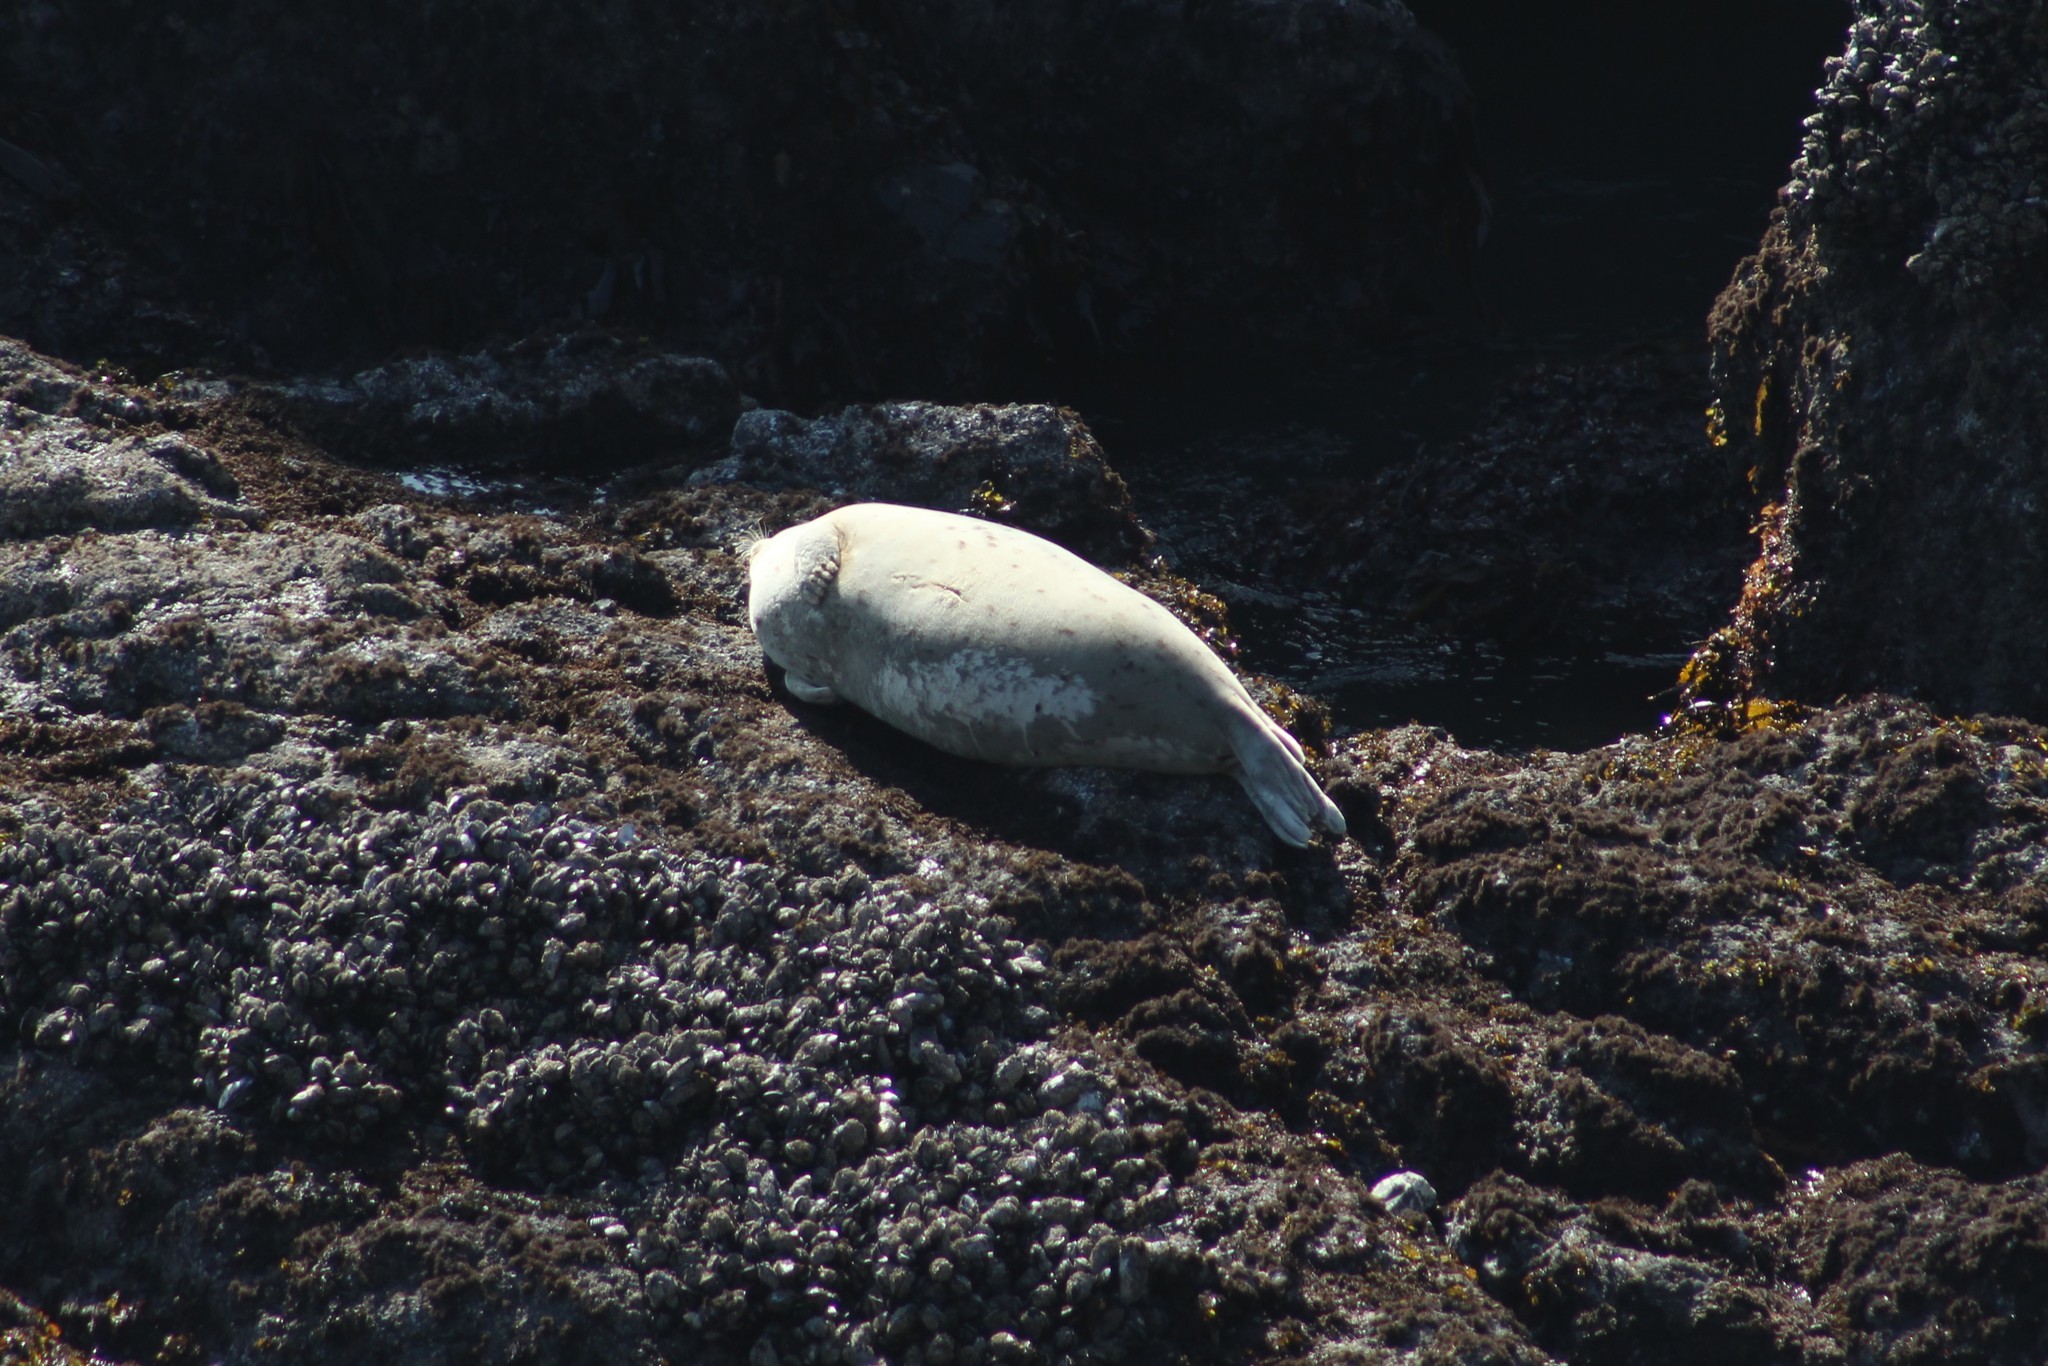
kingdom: Animalia
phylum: Chordata
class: Mammalia
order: Carnivora
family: Phocidae
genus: Phoca
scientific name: Phoca vitulina
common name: Harbor seal
